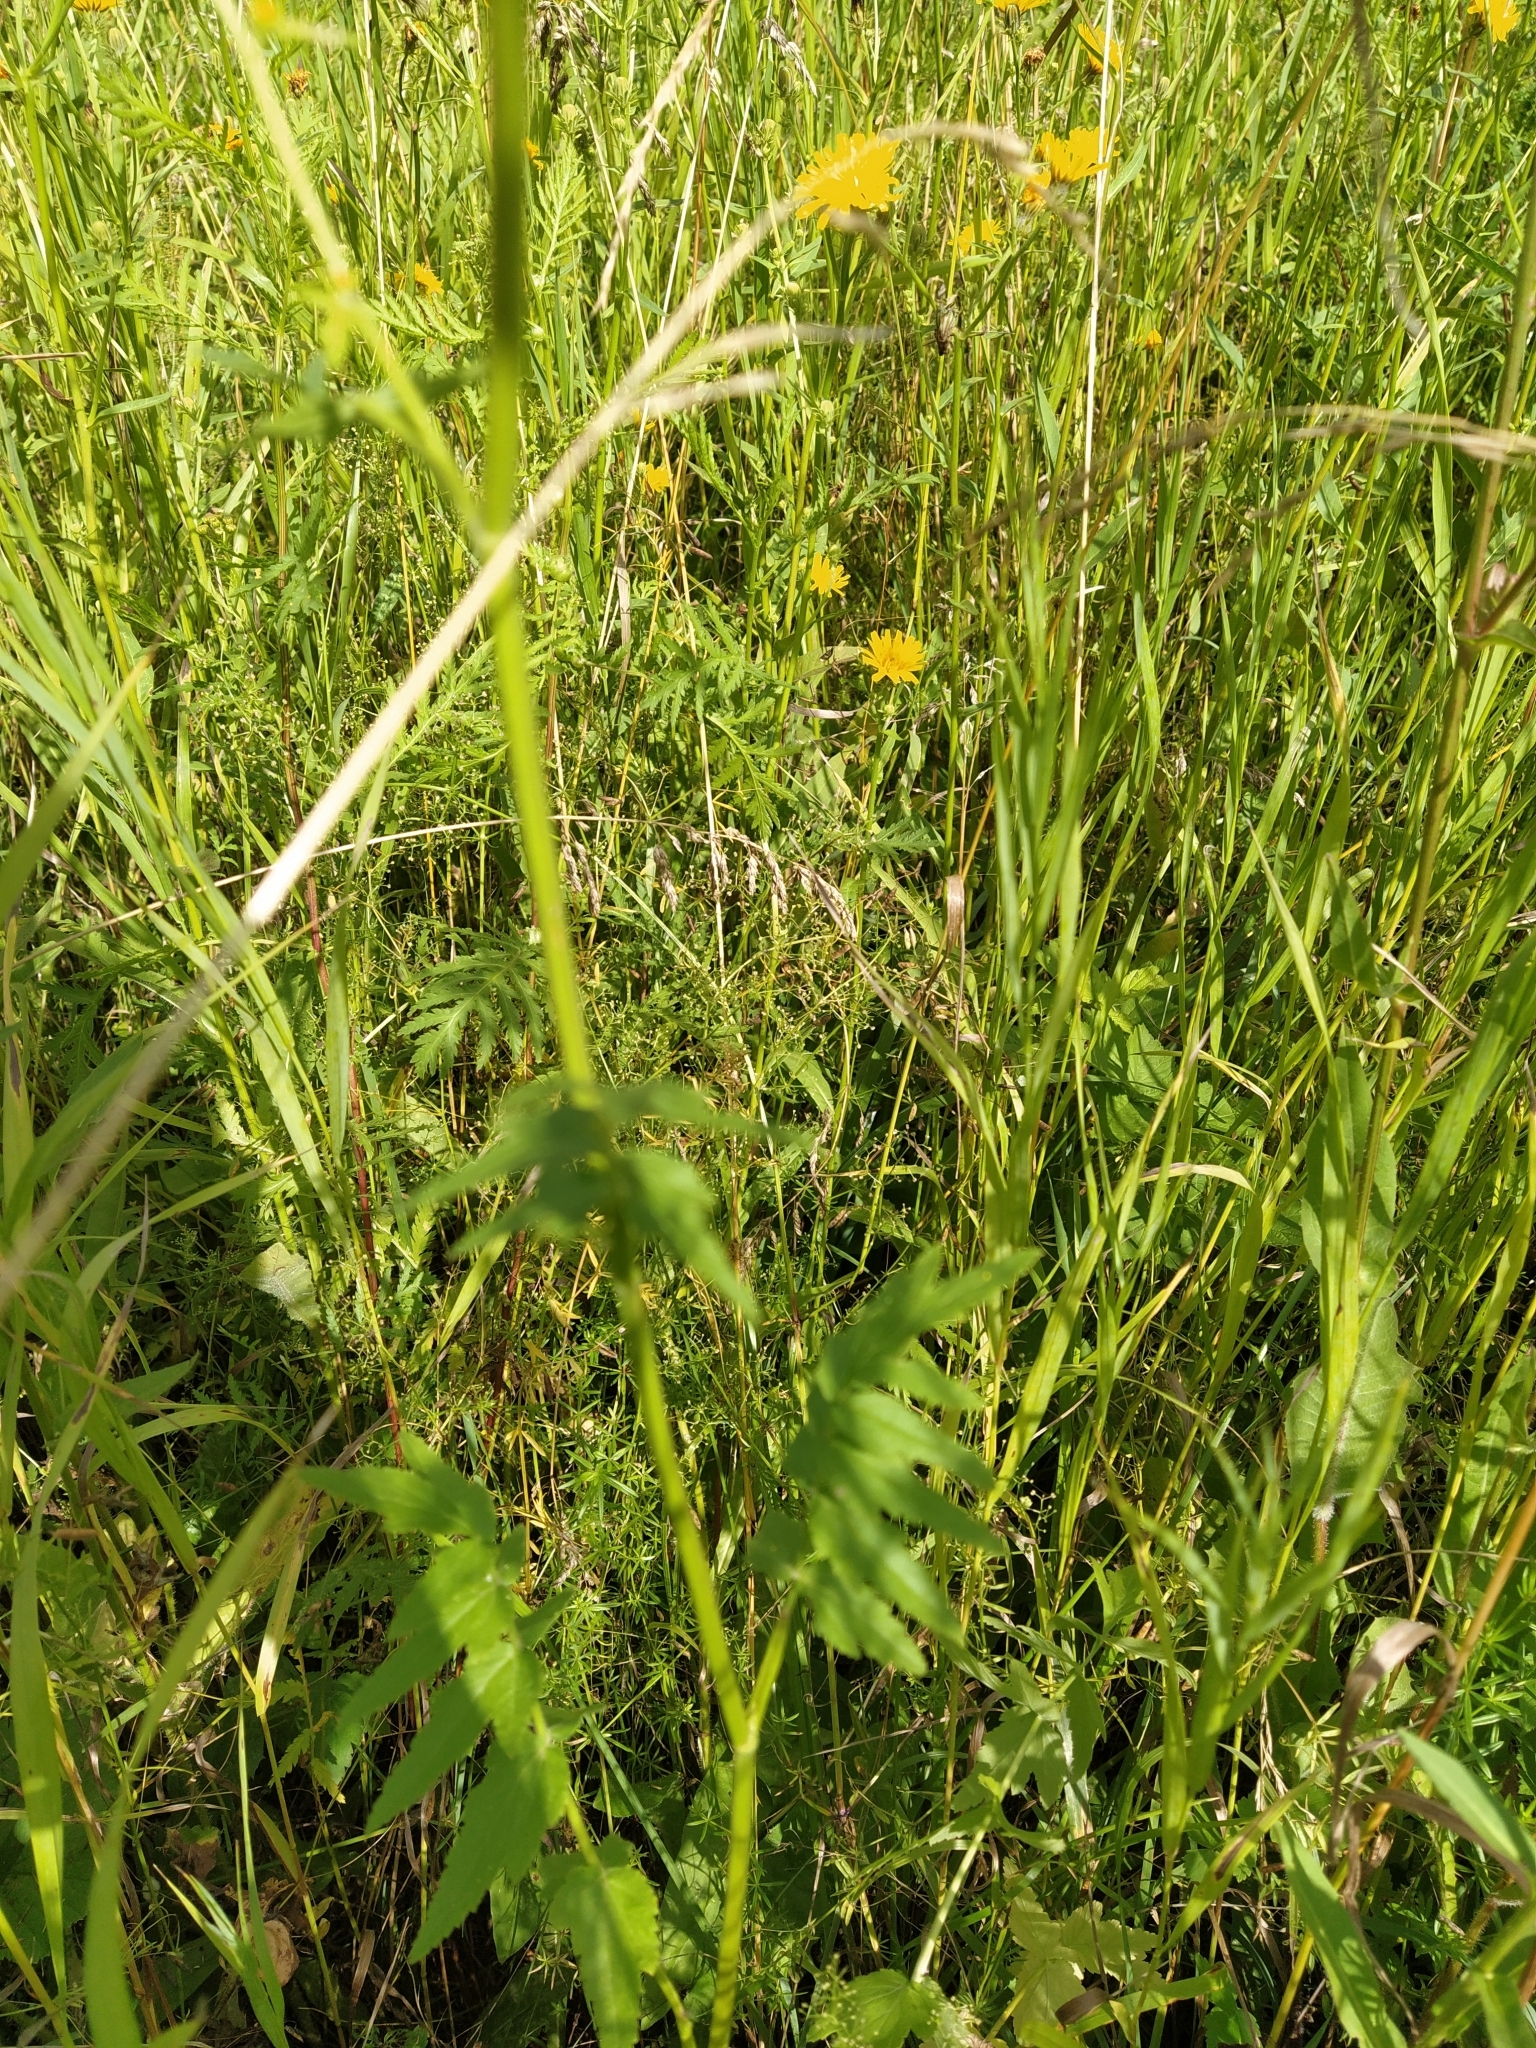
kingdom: Plantae
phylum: Tracheophyta
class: Magnoliopsida
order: Apiales
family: Apiaceae
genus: Pastinaca
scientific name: Pastinaca sativa
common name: Wild parsnip
